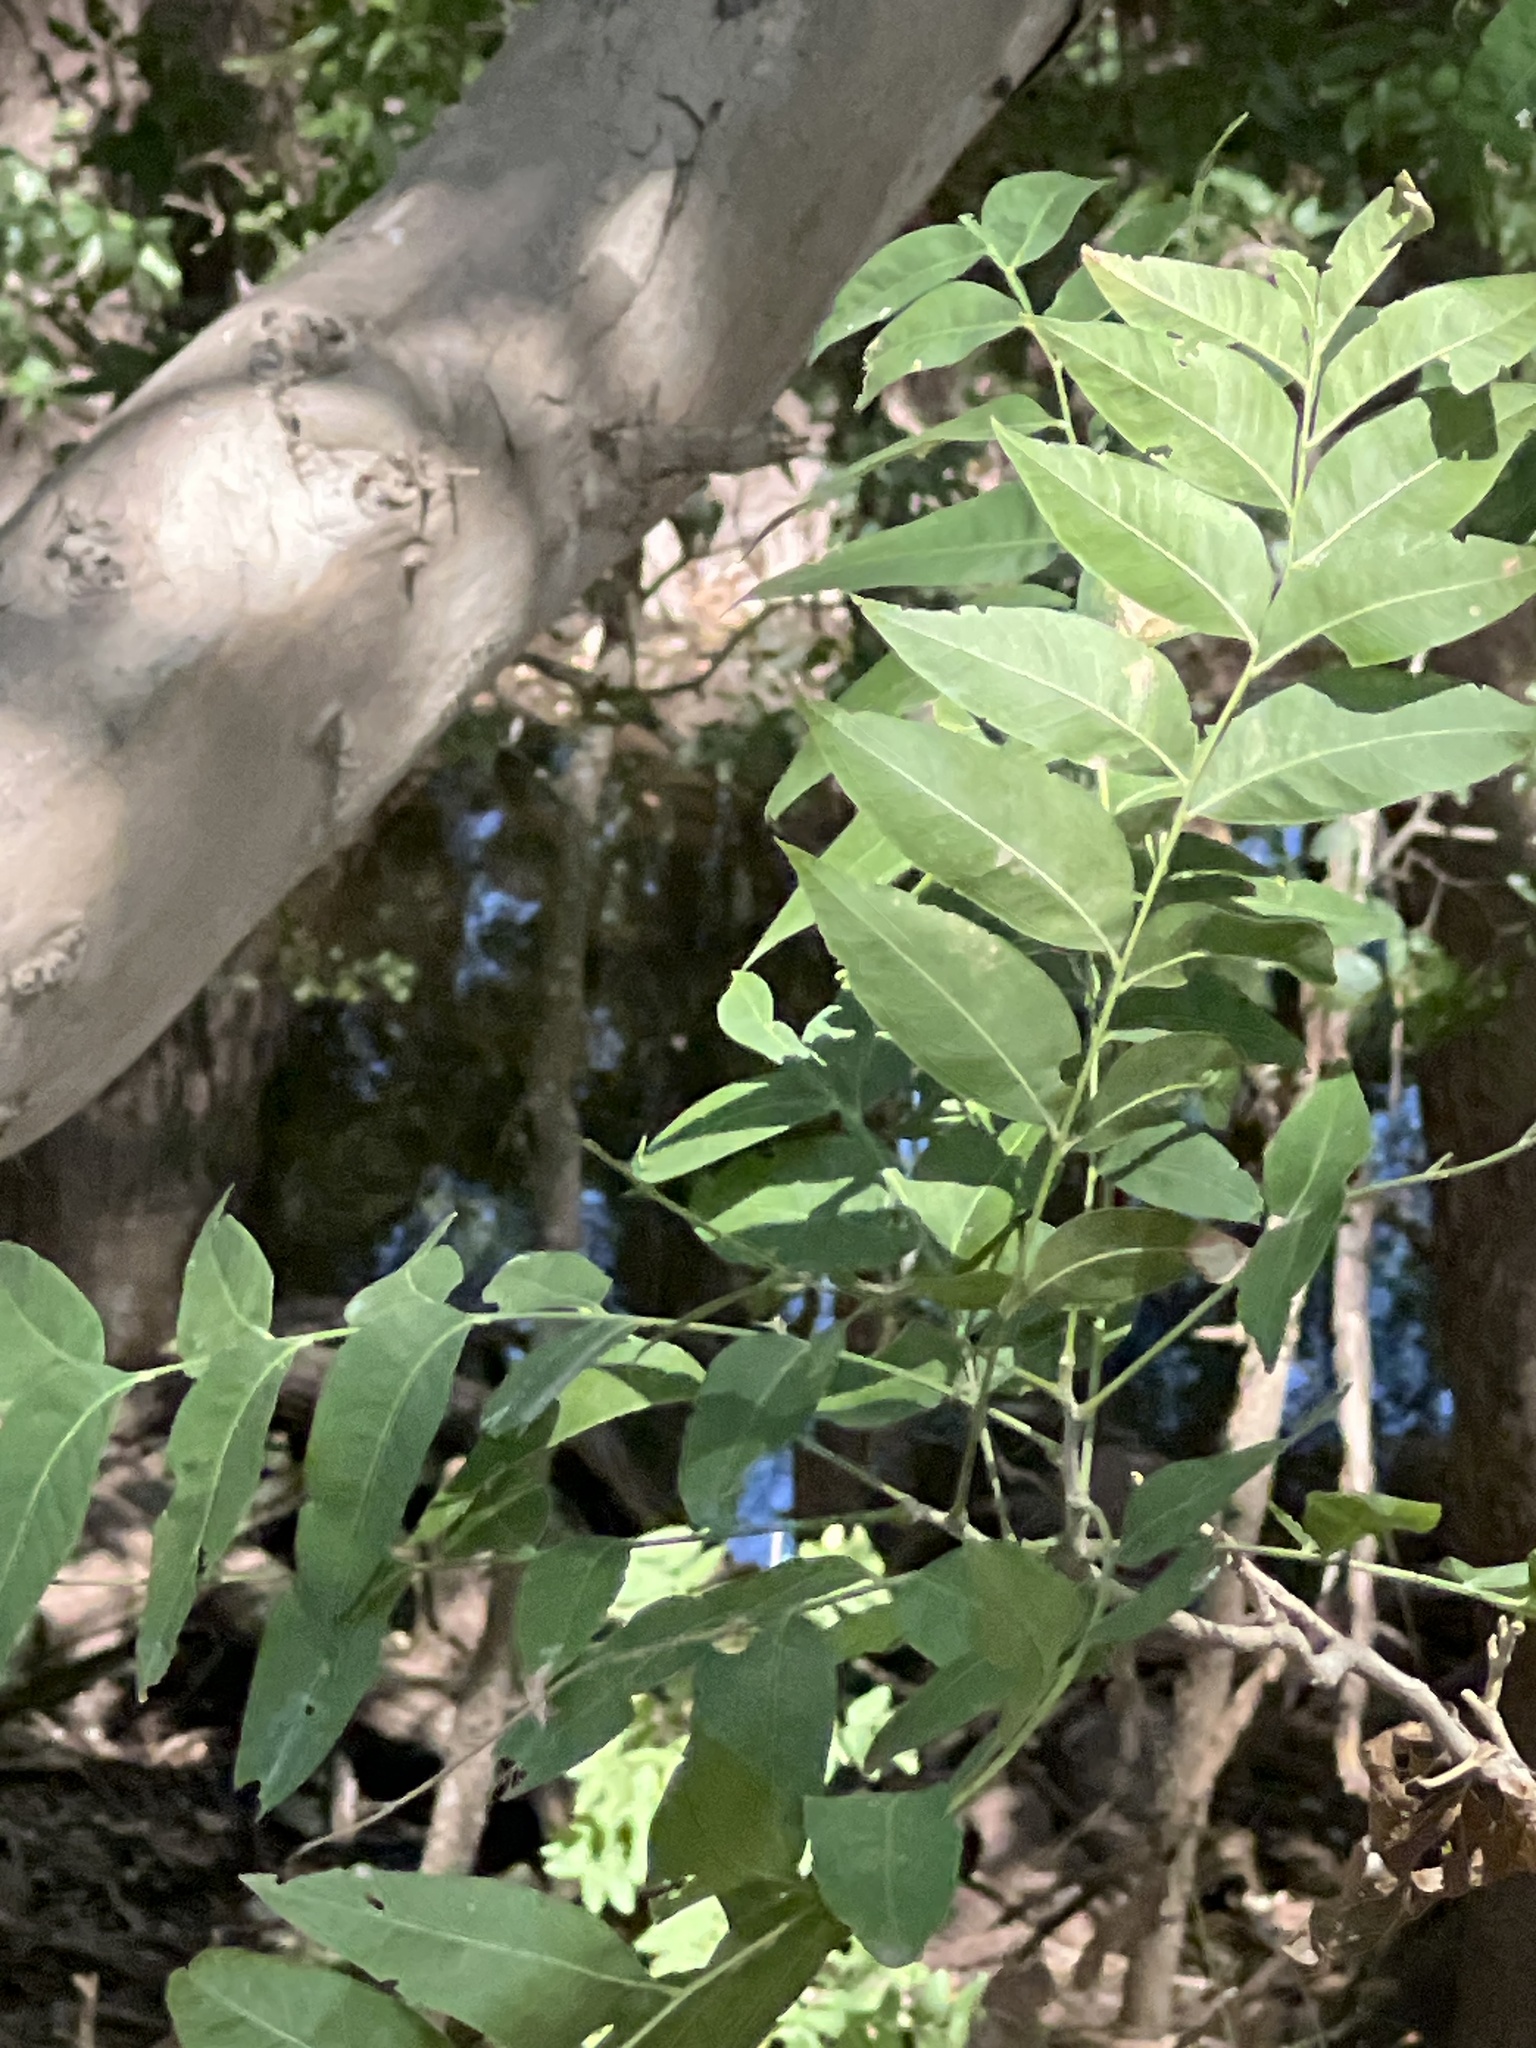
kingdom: Plantae
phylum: Tracheophyta
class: Magnoliopsida
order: Sapindales
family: Sapindaceae
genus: Sapindus
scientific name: Sapindus drummondii
